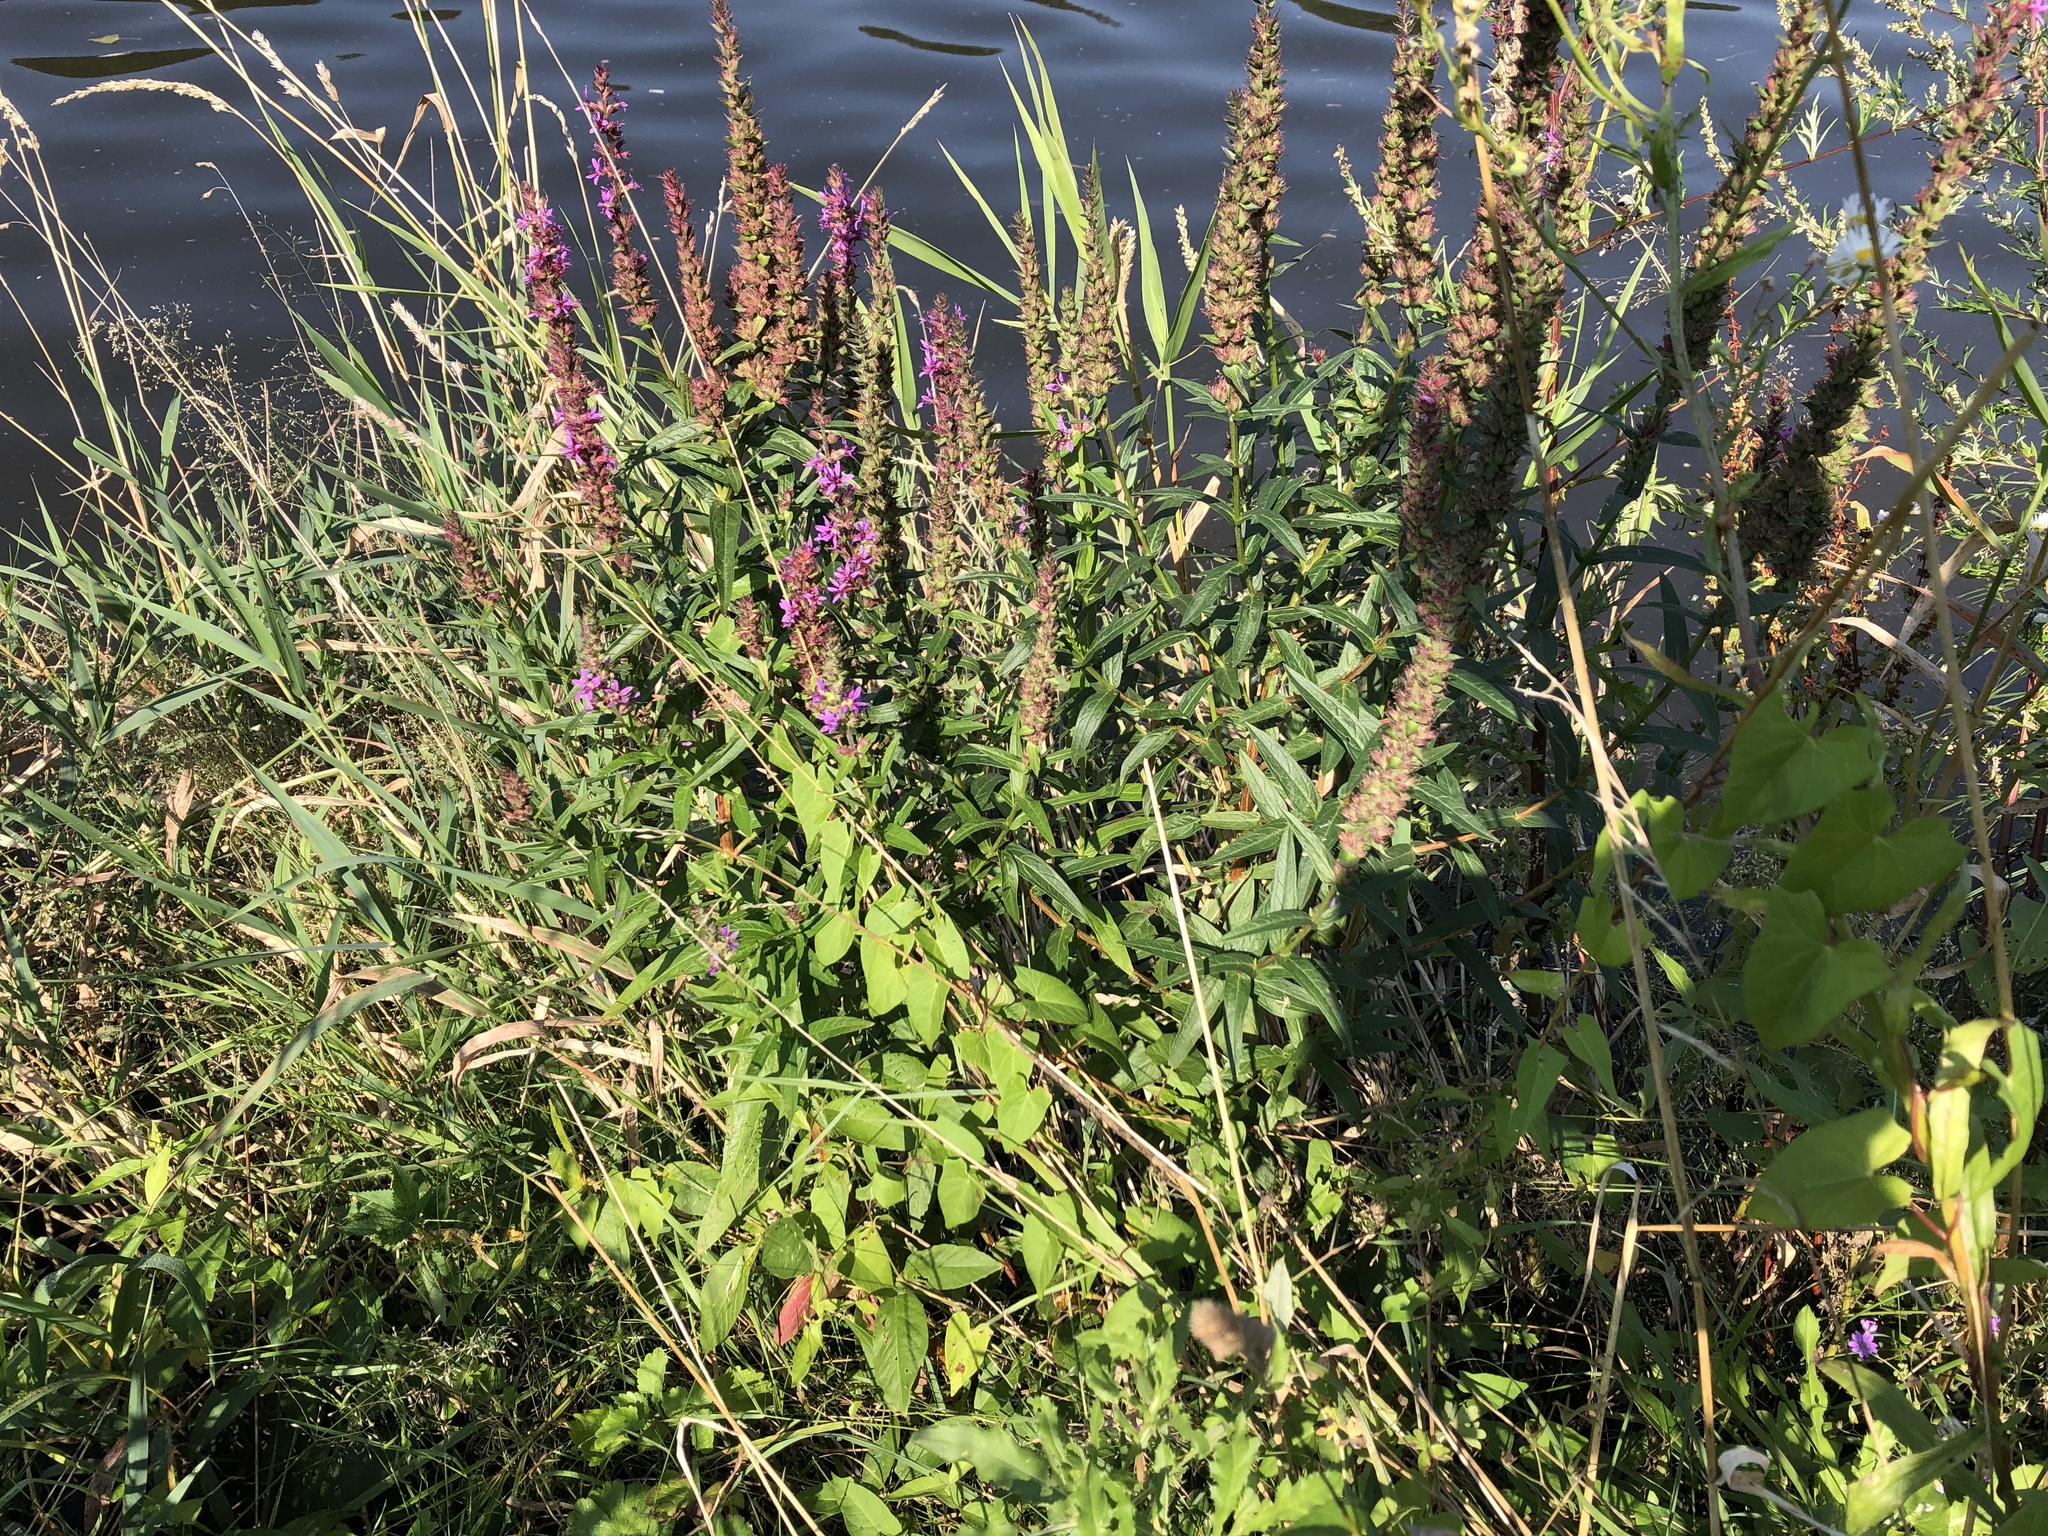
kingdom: Plantae
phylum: Tracheophyta
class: Magnoliopsida
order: Myrtales
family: Lythraceae
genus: Lythrum
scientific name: Lythrum salicaria
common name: Purple loosestrife
